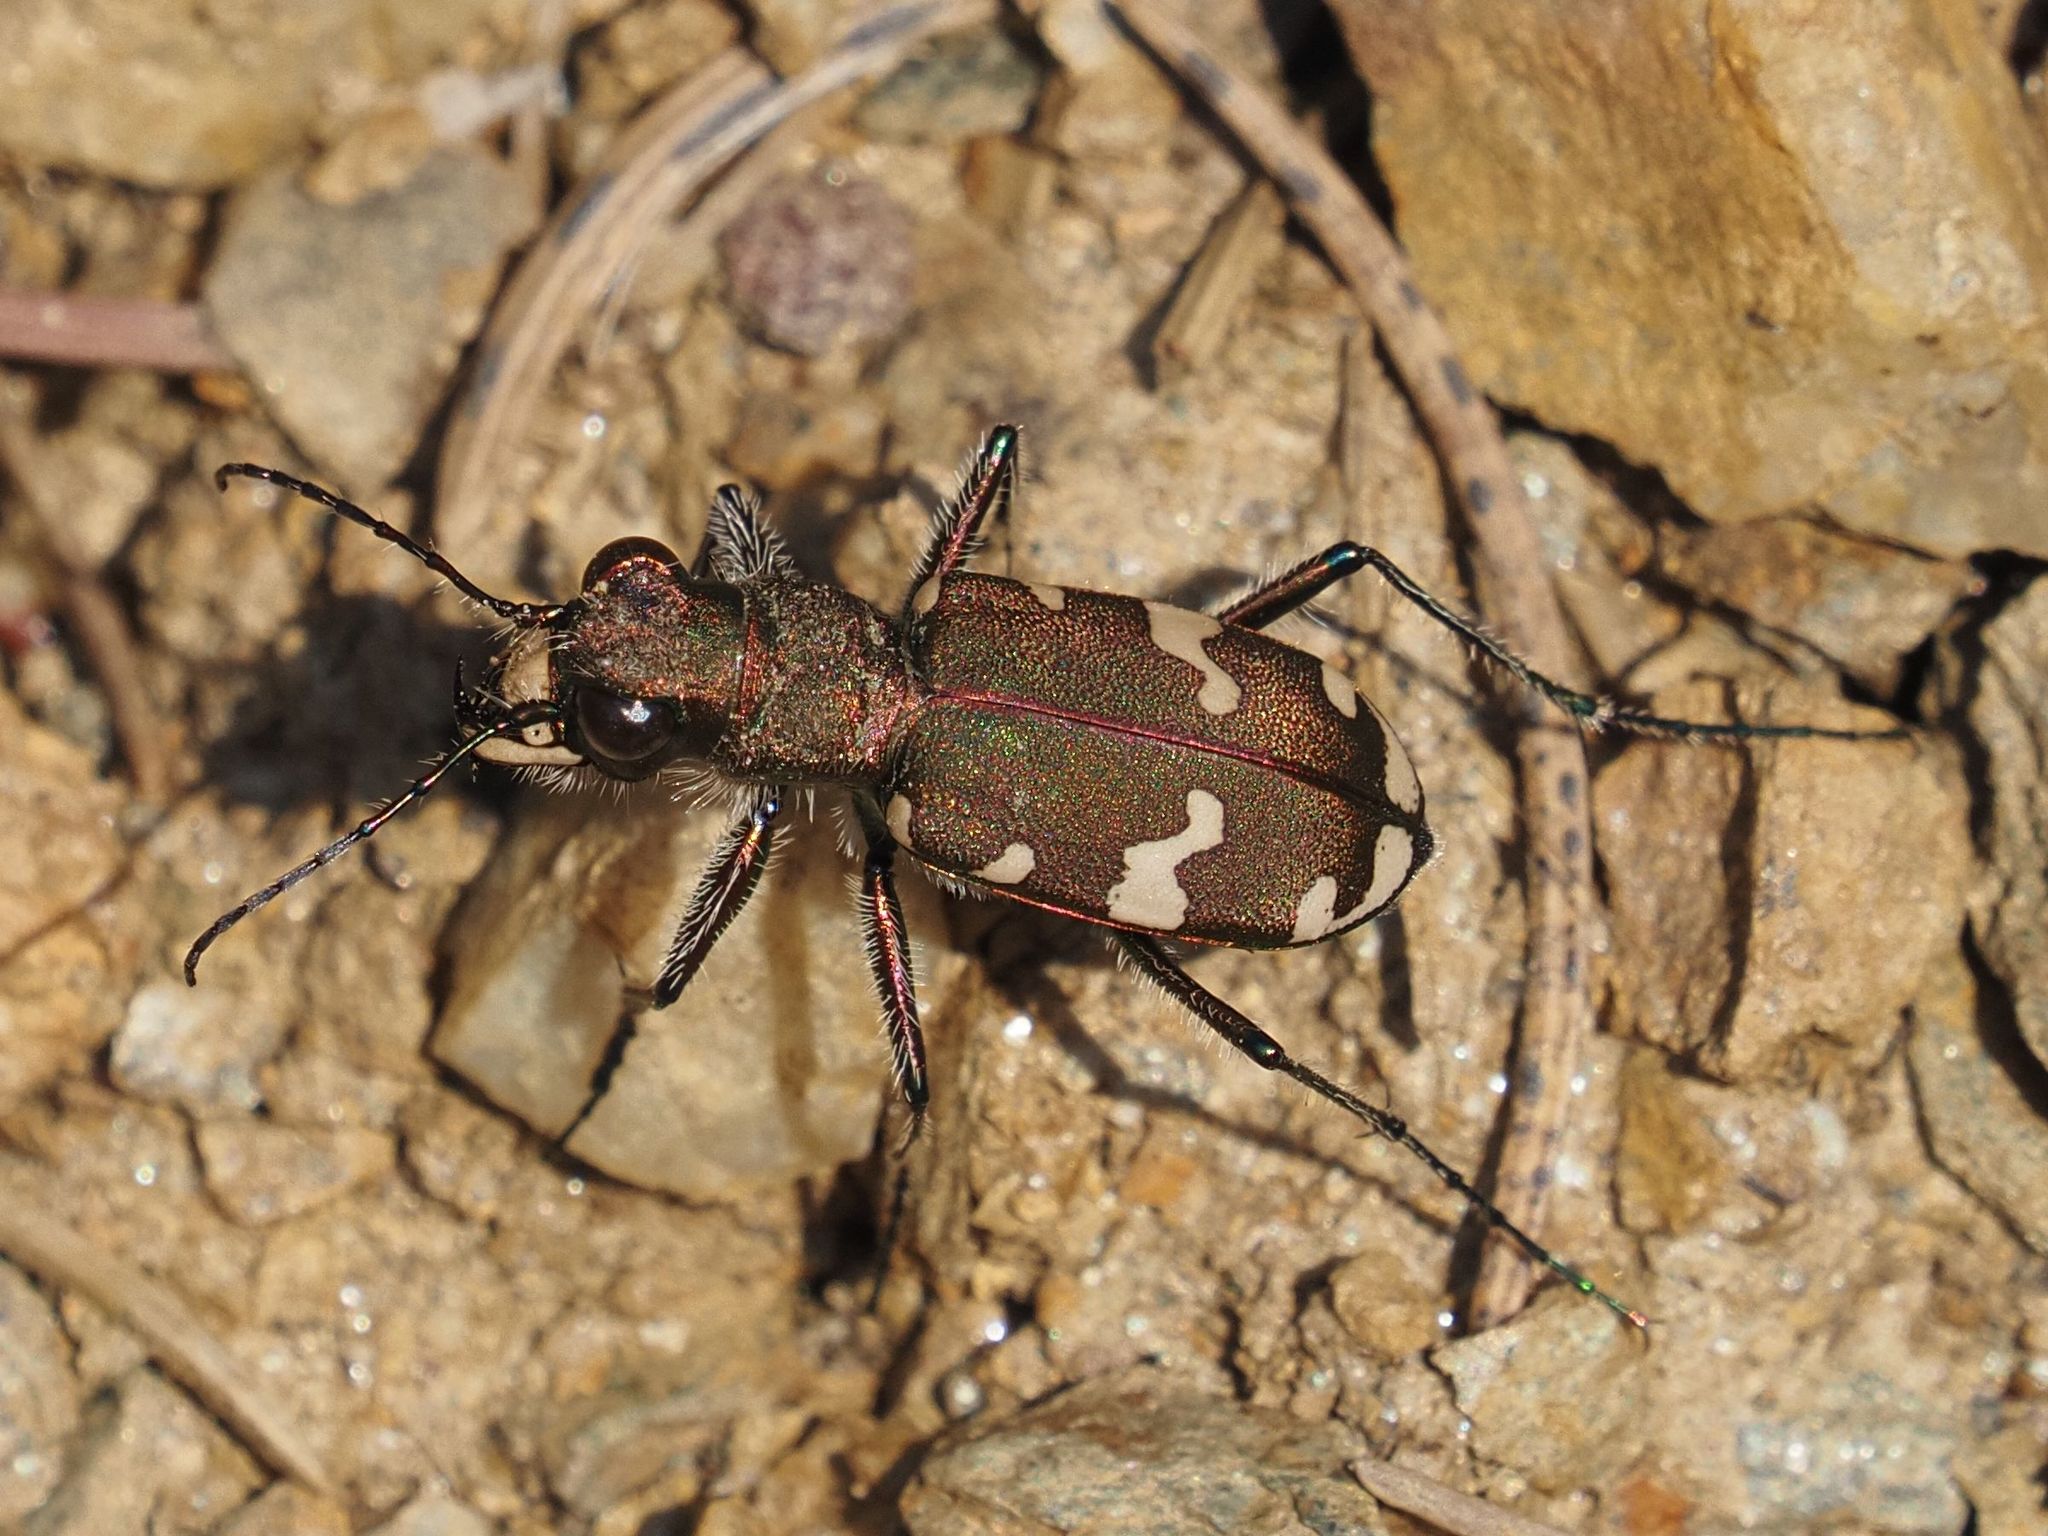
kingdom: Animalia
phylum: Arthropoda
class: Insecta
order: Coleoptera
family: Carabidae
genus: Cicindela
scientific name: Cicindela sylvicola
